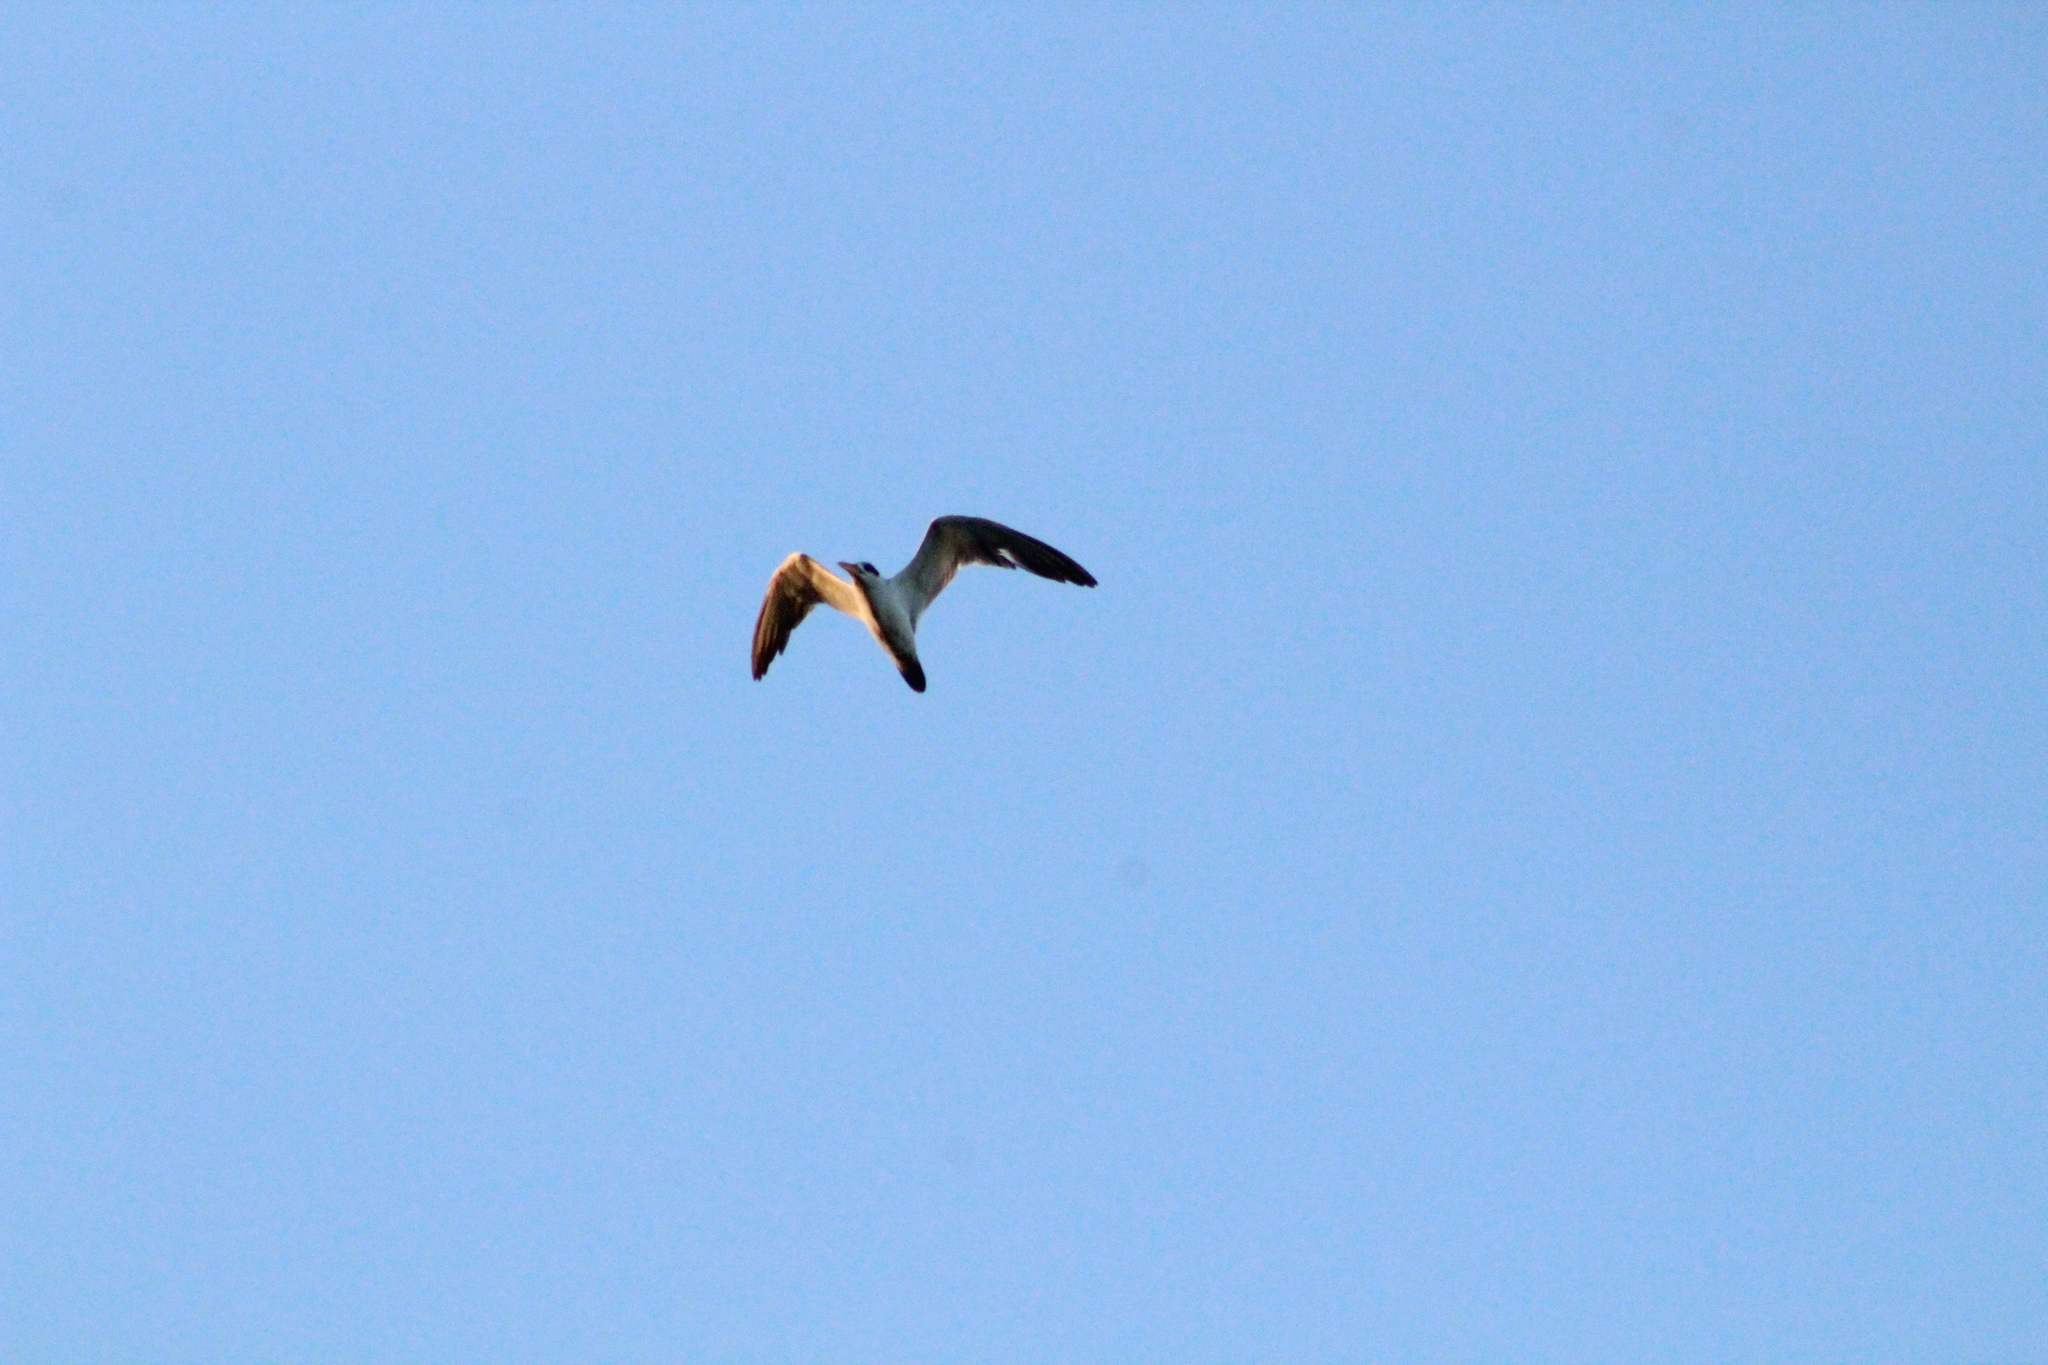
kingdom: Animalia
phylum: Chordata
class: Aves
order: Charadriiformes
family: Laridae
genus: Phaetusa
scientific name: Phaetusa simplex
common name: Large-billed tern
